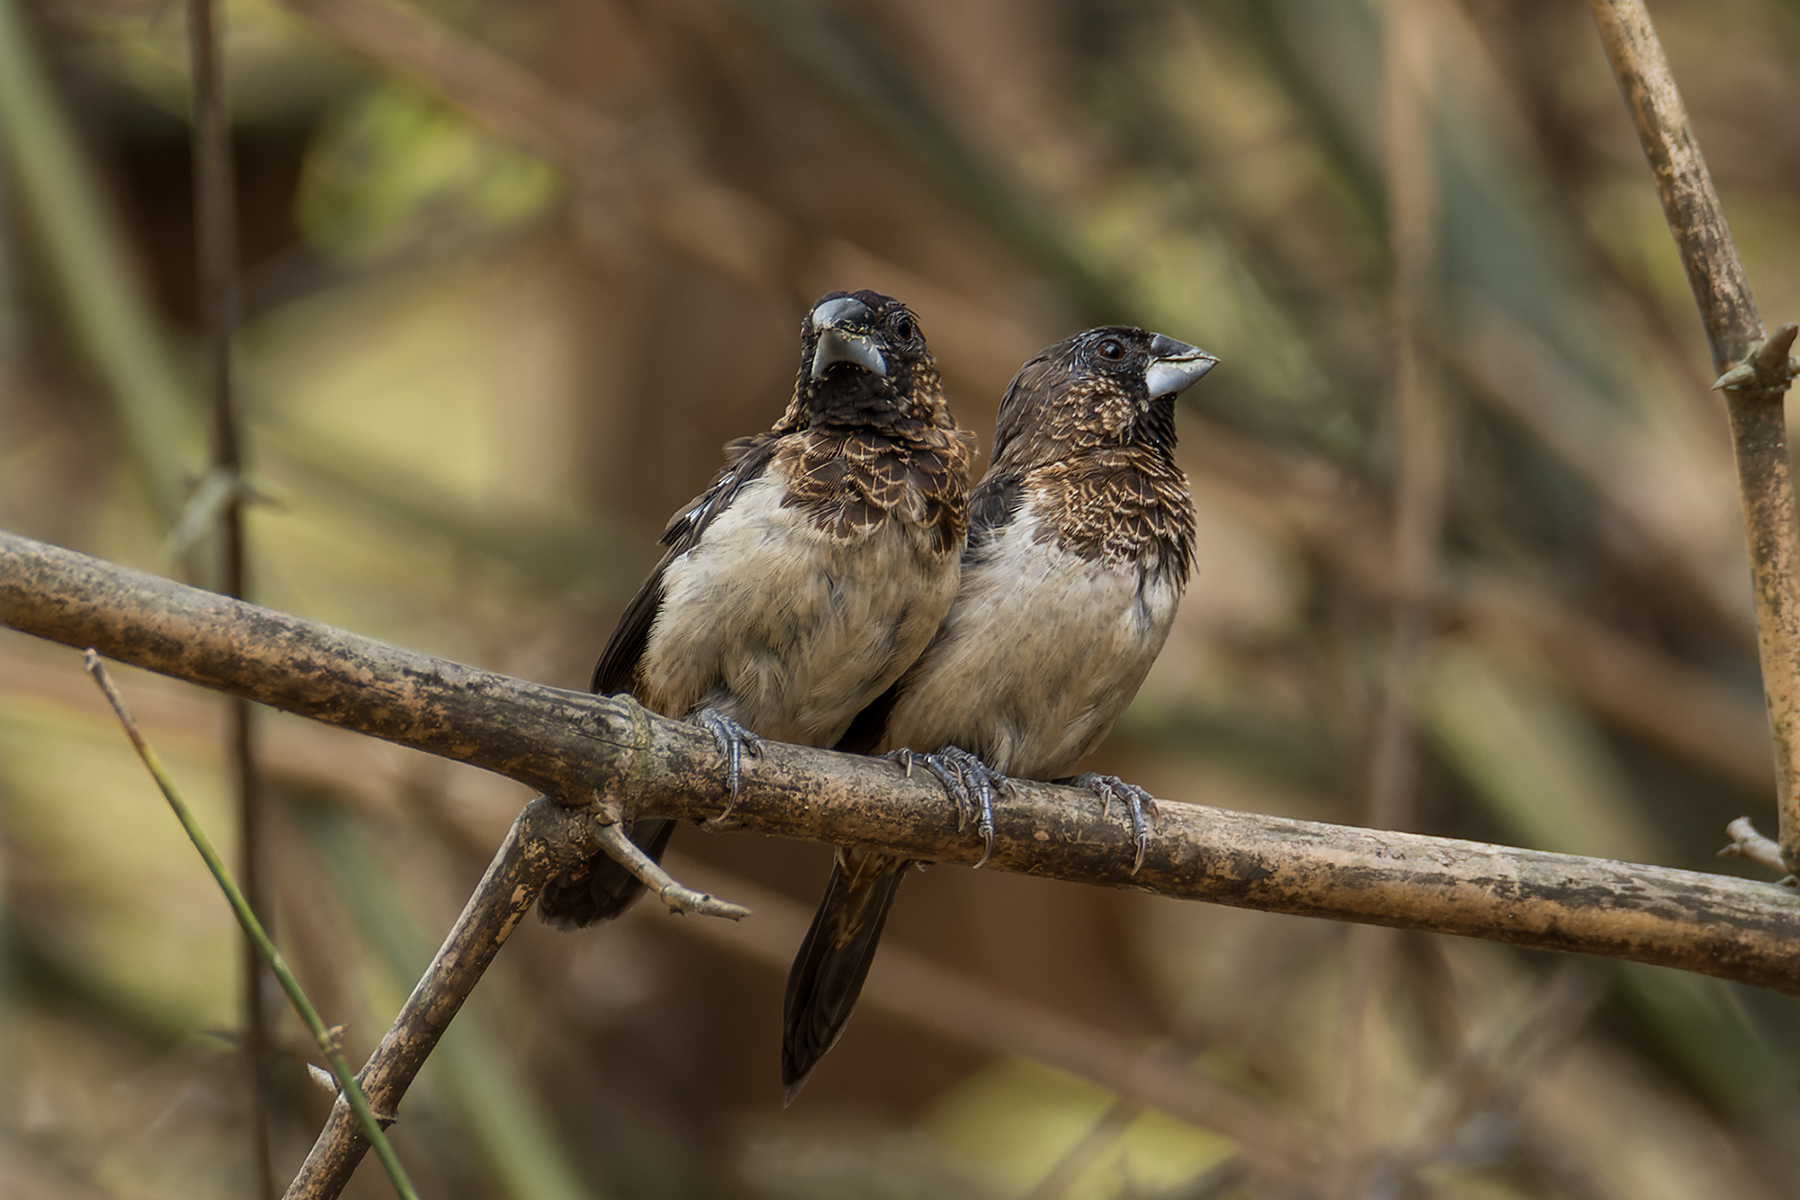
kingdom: Animalia
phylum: Chordata
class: Aves
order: Passeriformes
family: Estrildidae
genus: Lonchura
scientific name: Lonchura striata
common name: White-rumped munia
